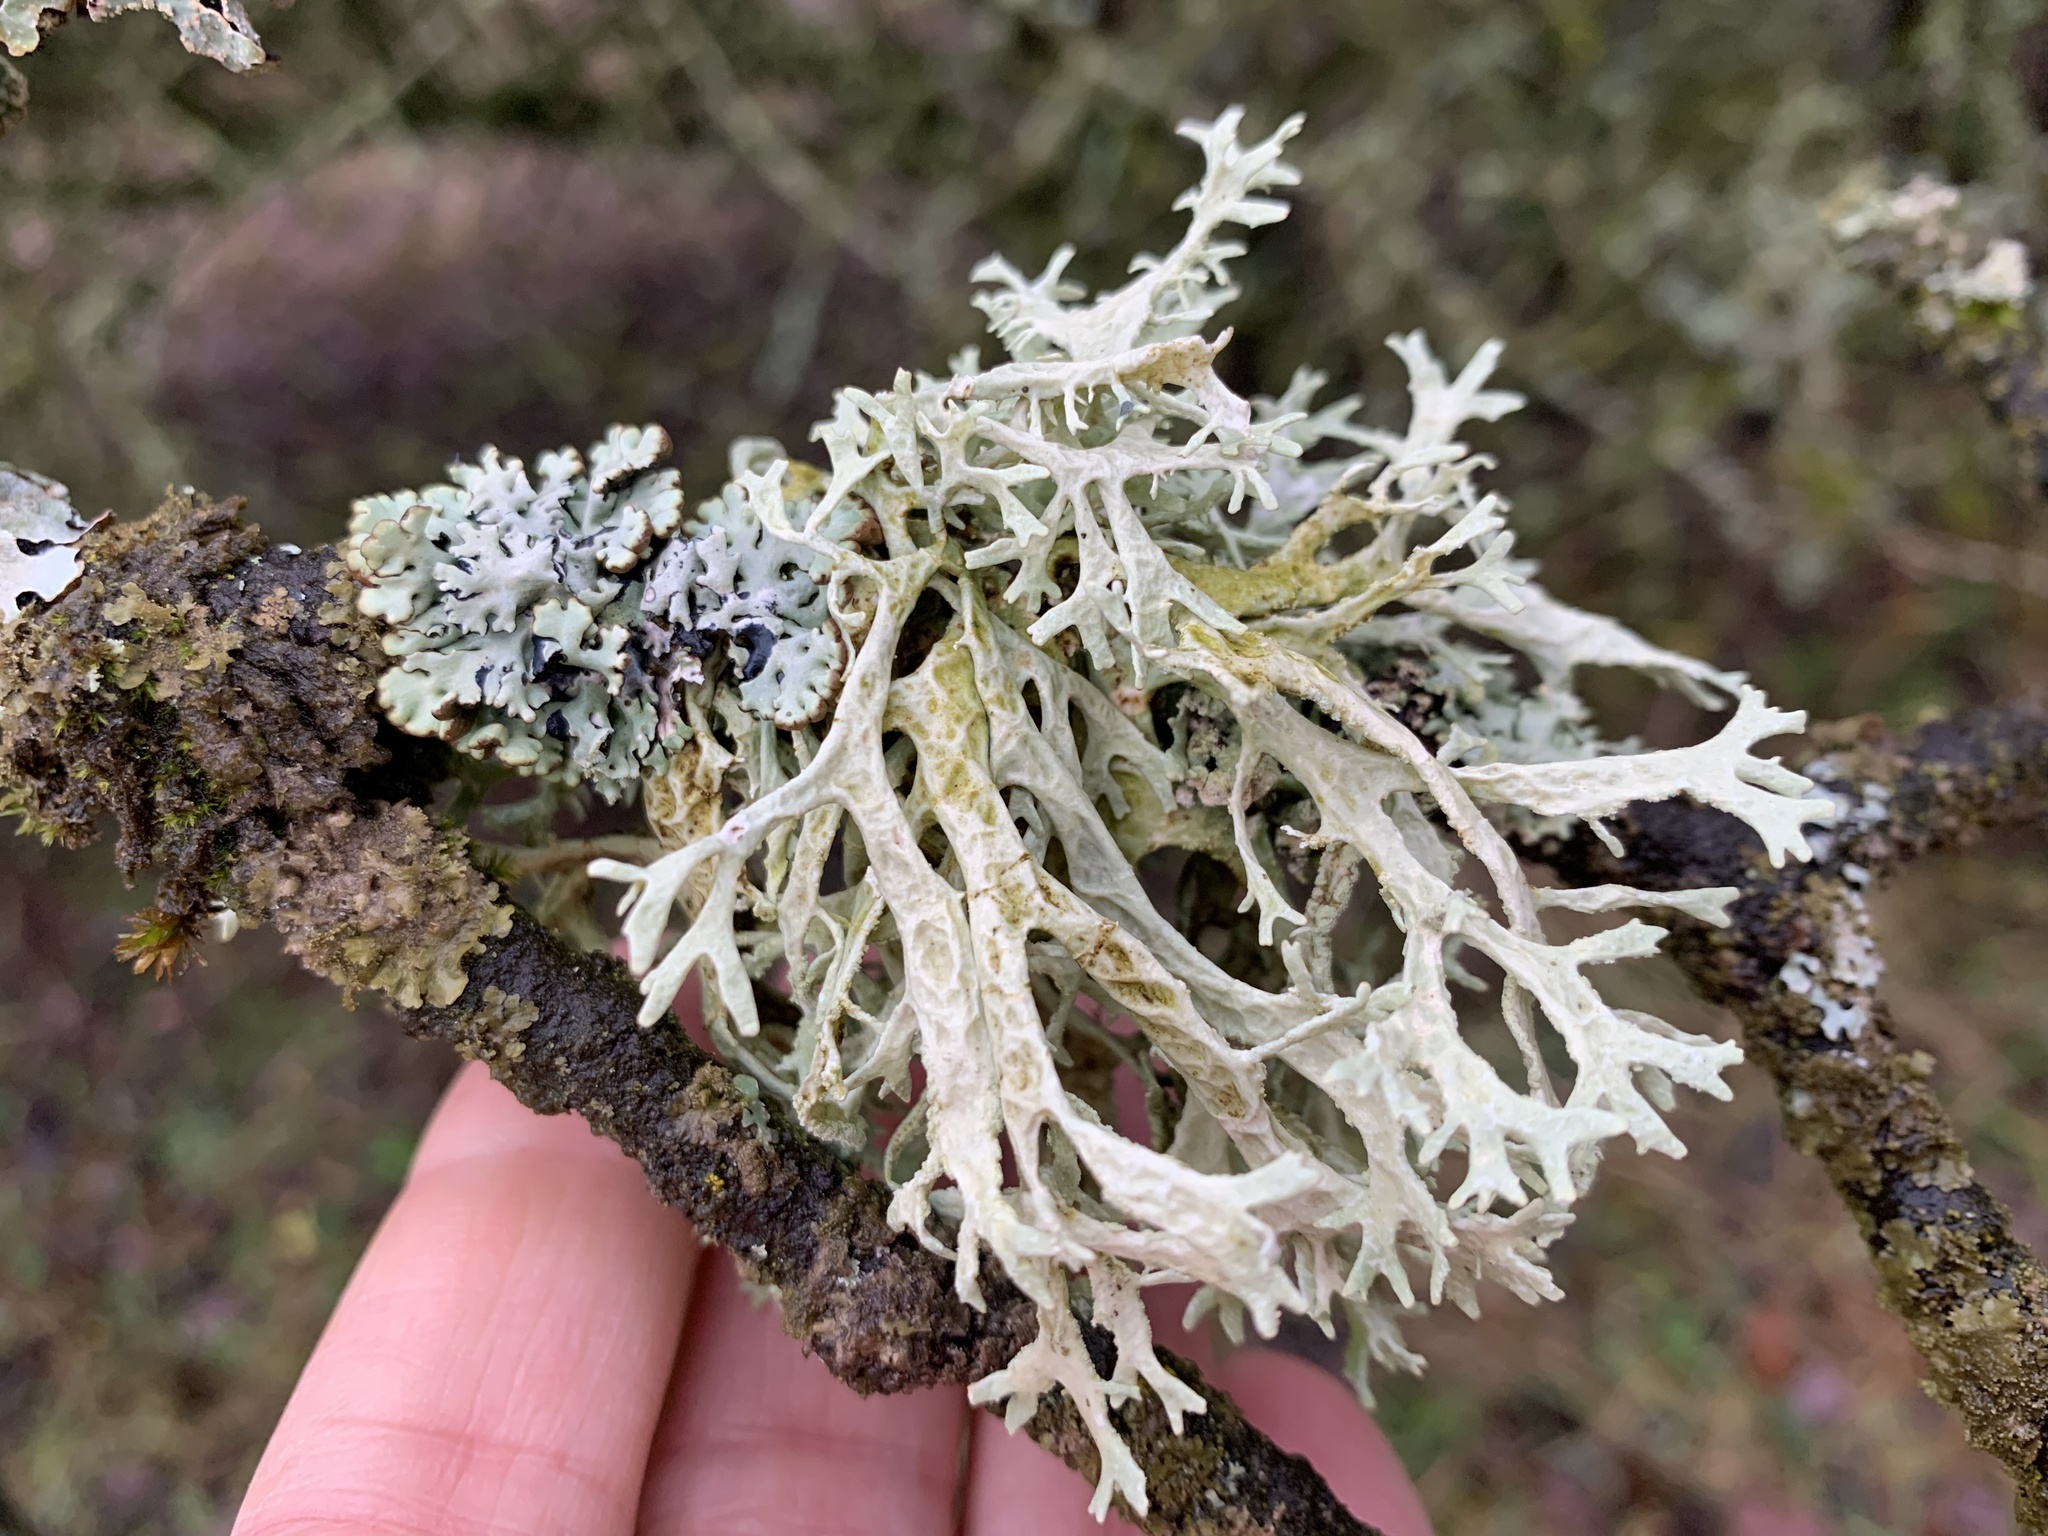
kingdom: Fungi
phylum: Ascomycota
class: Lecanoromycetes
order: Lecanorales
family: Parmeliaceae
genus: Evernia
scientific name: Evernia prunastri
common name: Oak moss
